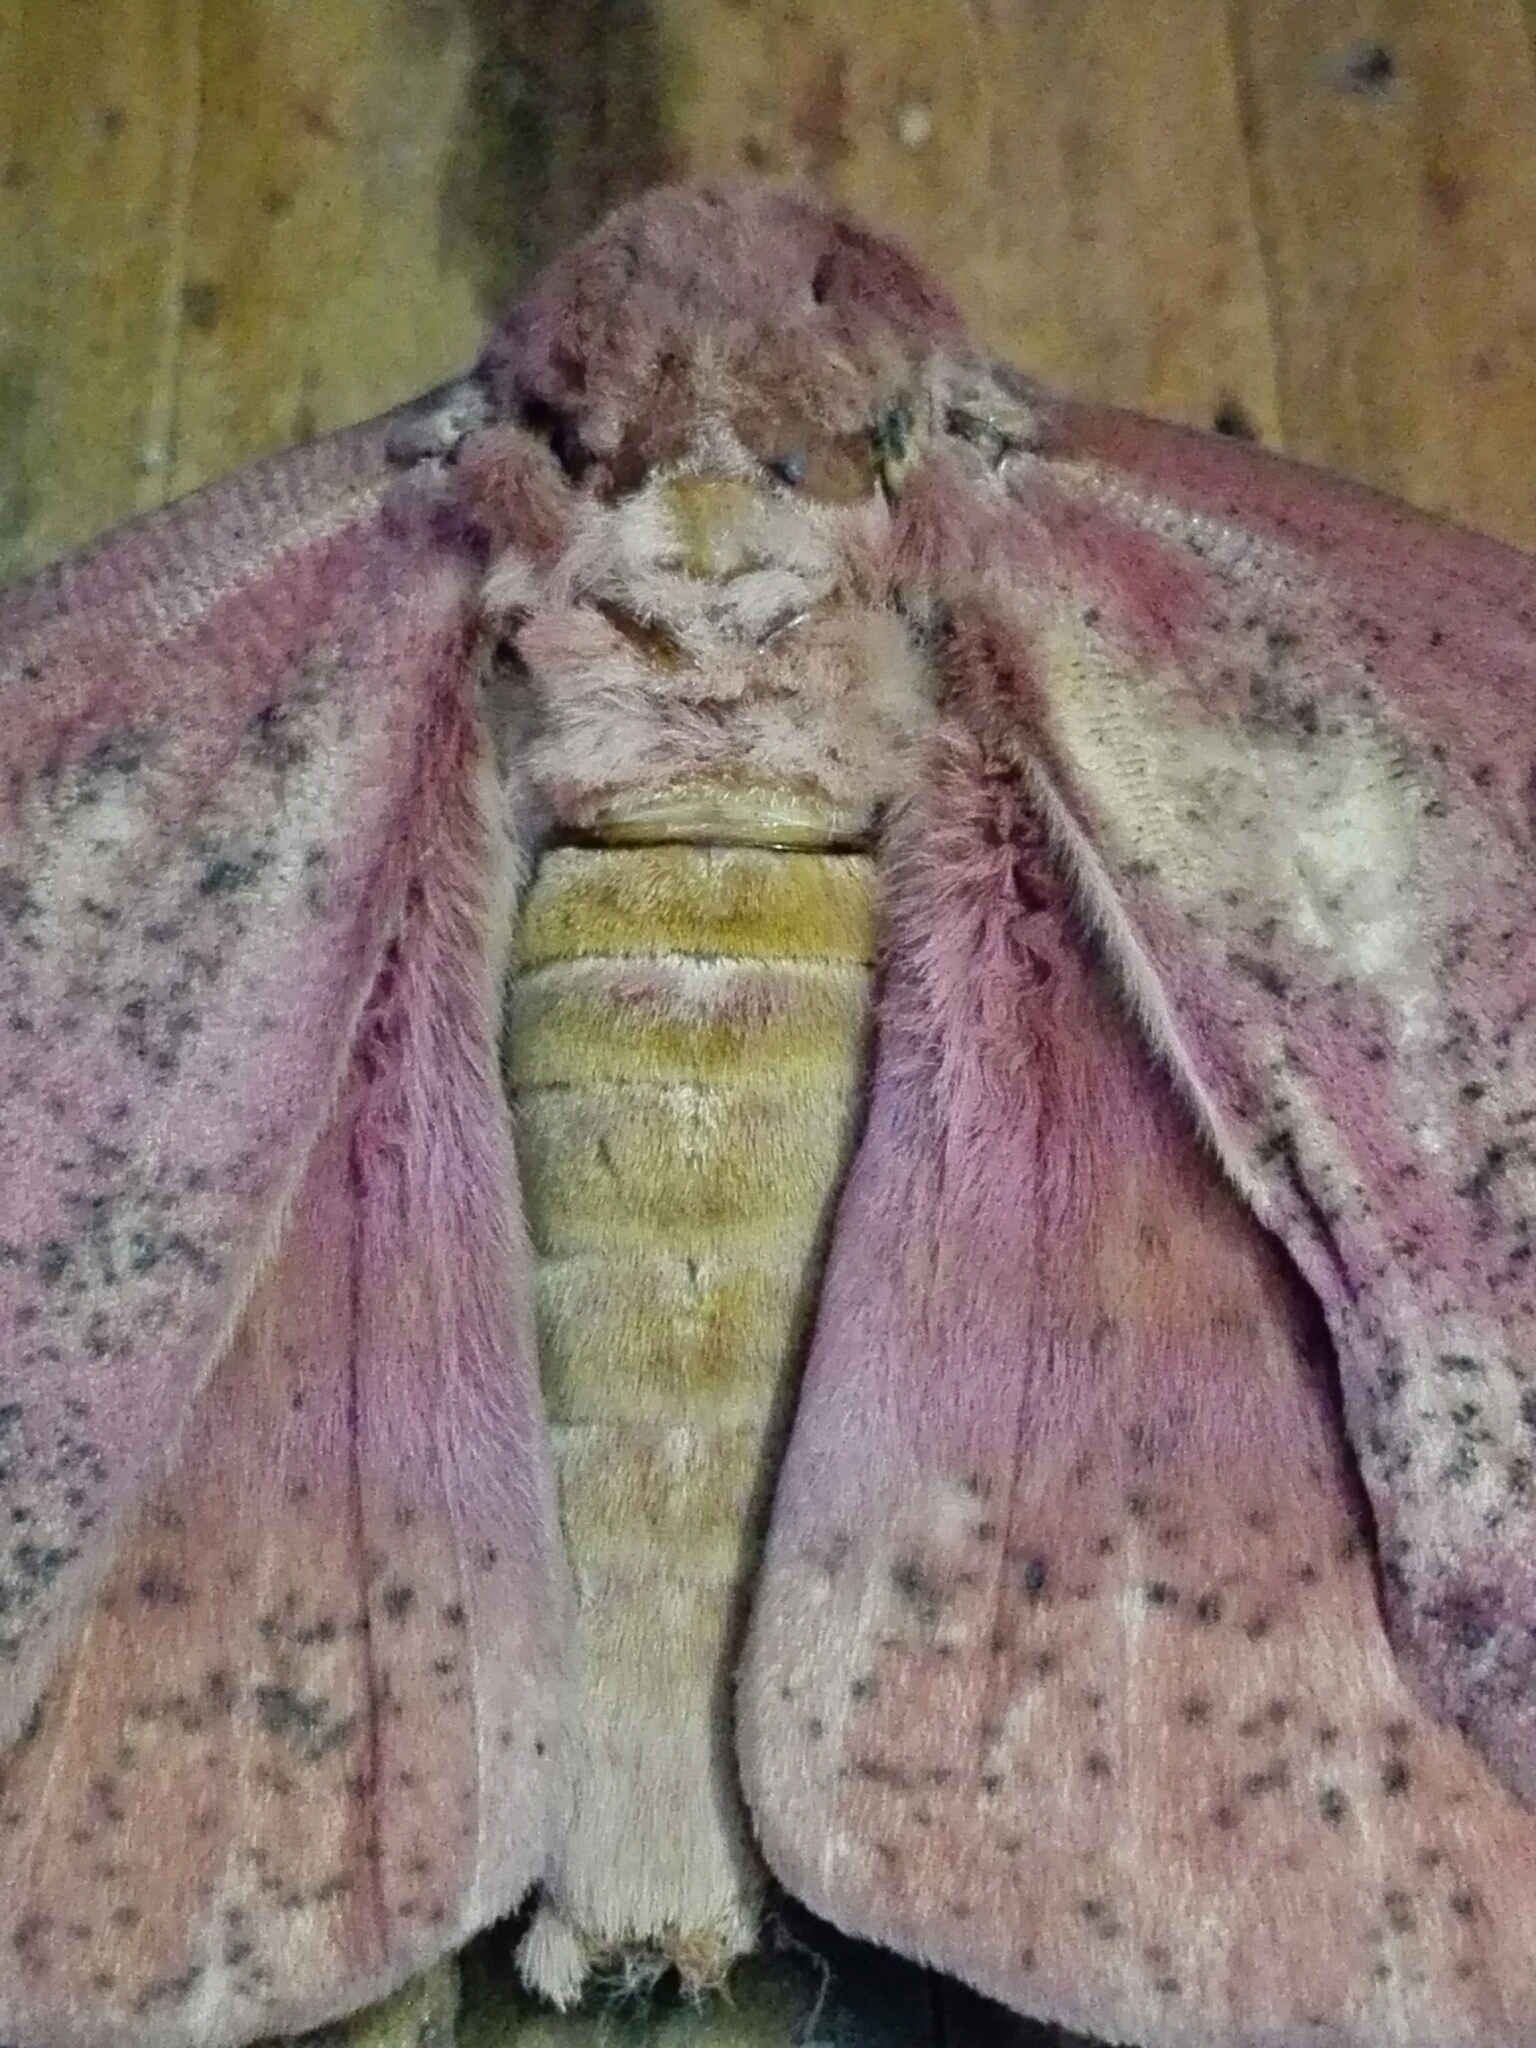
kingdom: Animalia
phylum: Arthropoda
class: Insecta
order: Lepidoptera
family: Saturniidae
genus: Eacles
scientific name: Eacles imperialis
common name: Imperial moth
